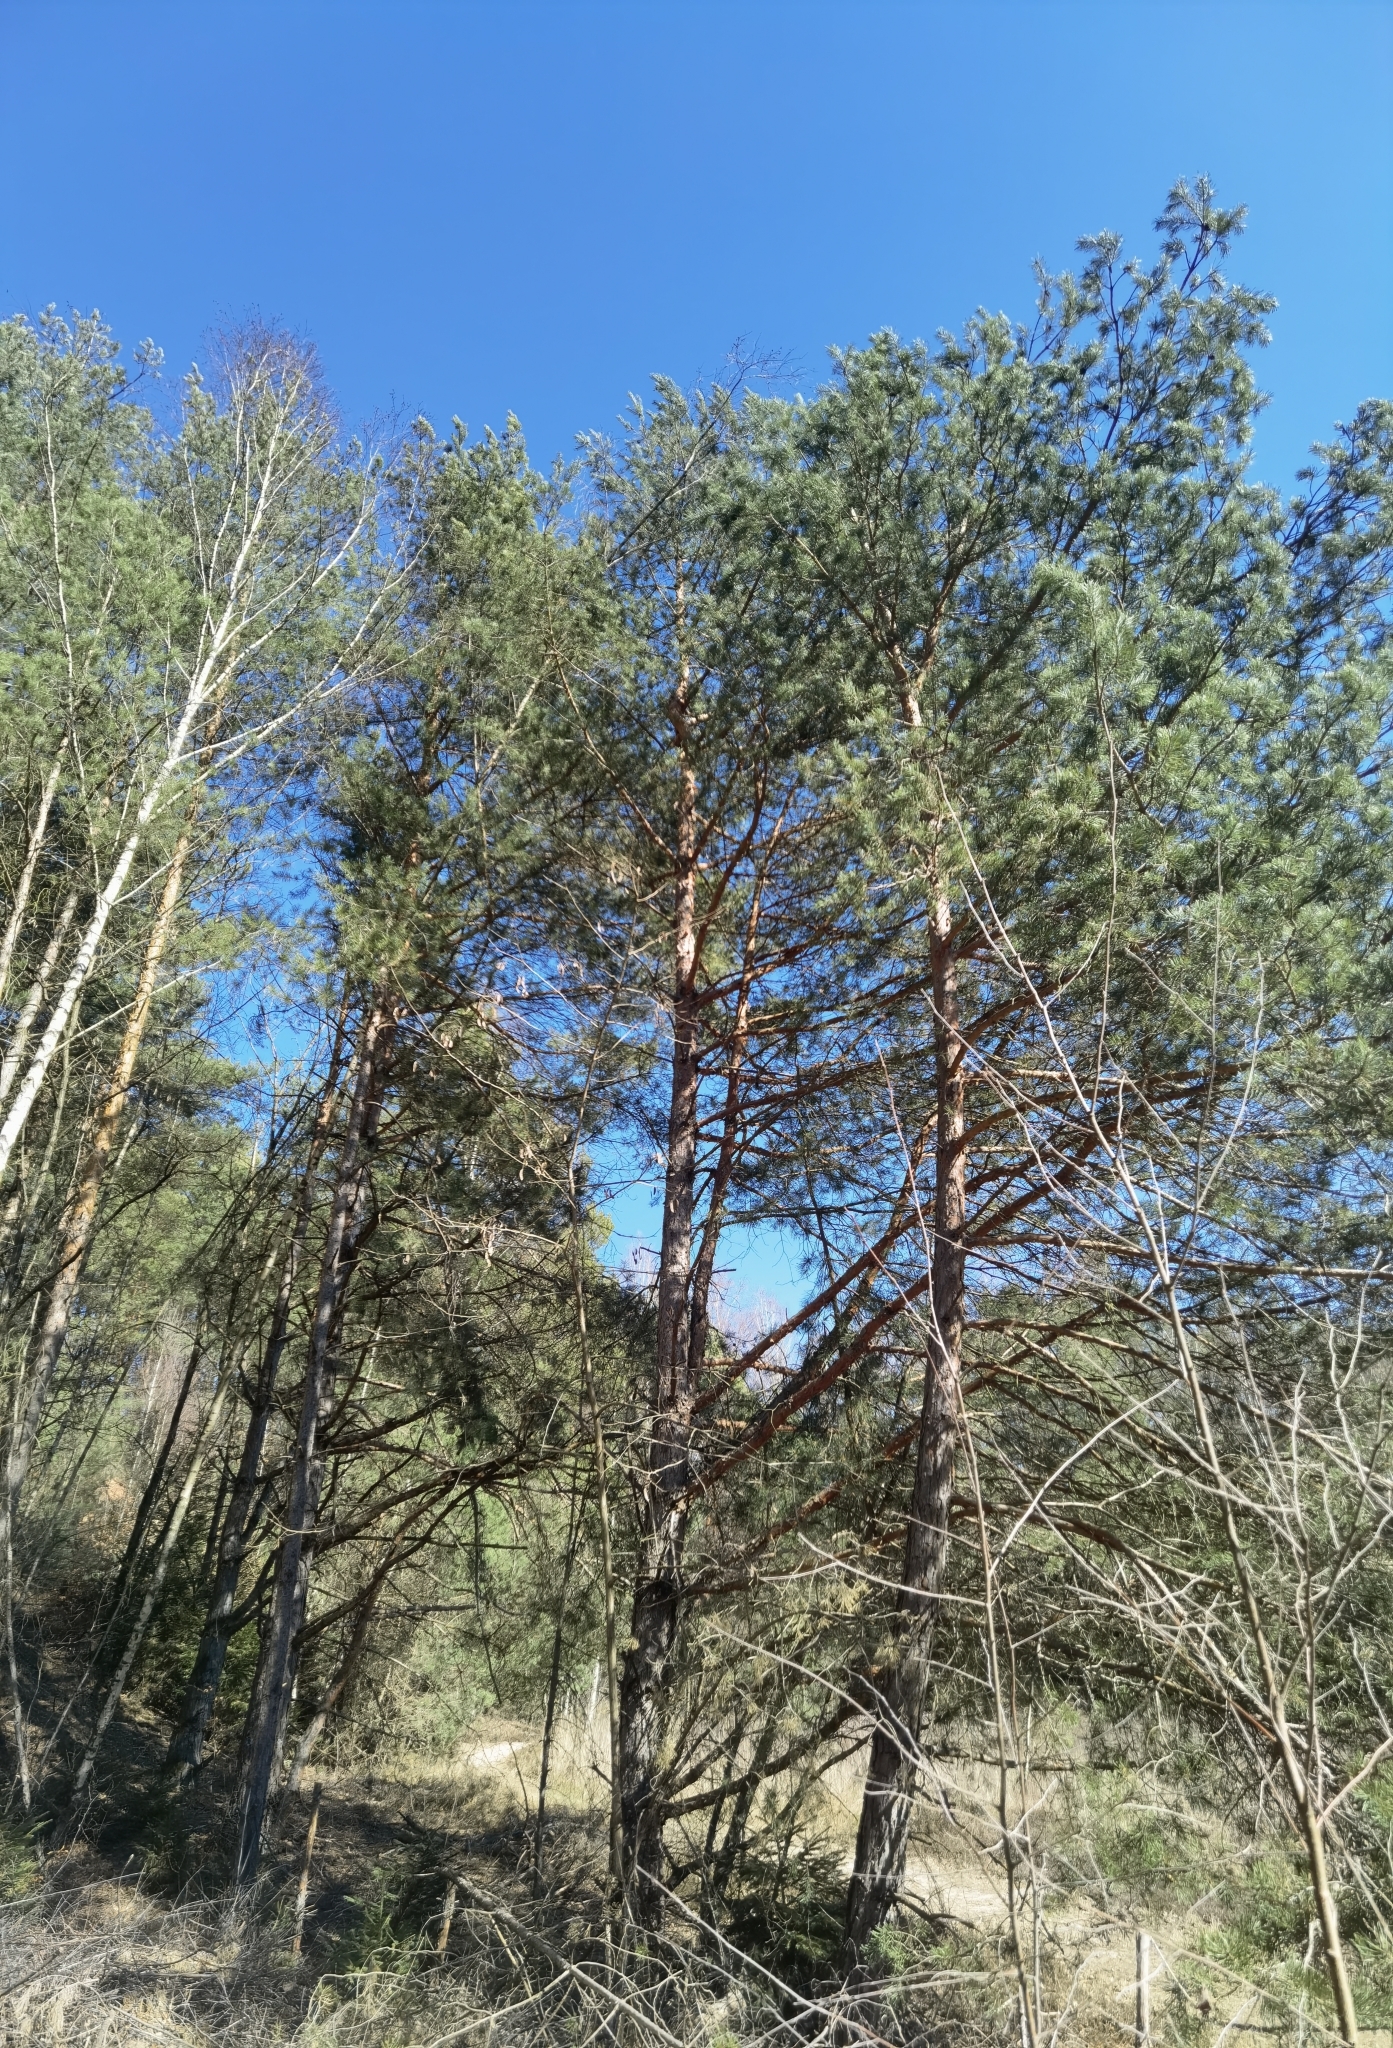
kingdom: Plantae
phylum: Tracheophyta
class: Pinopsida
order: Pinales
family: Pinaceae
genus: Pinus
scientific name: Pinus sylvestris
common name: Scots pine
